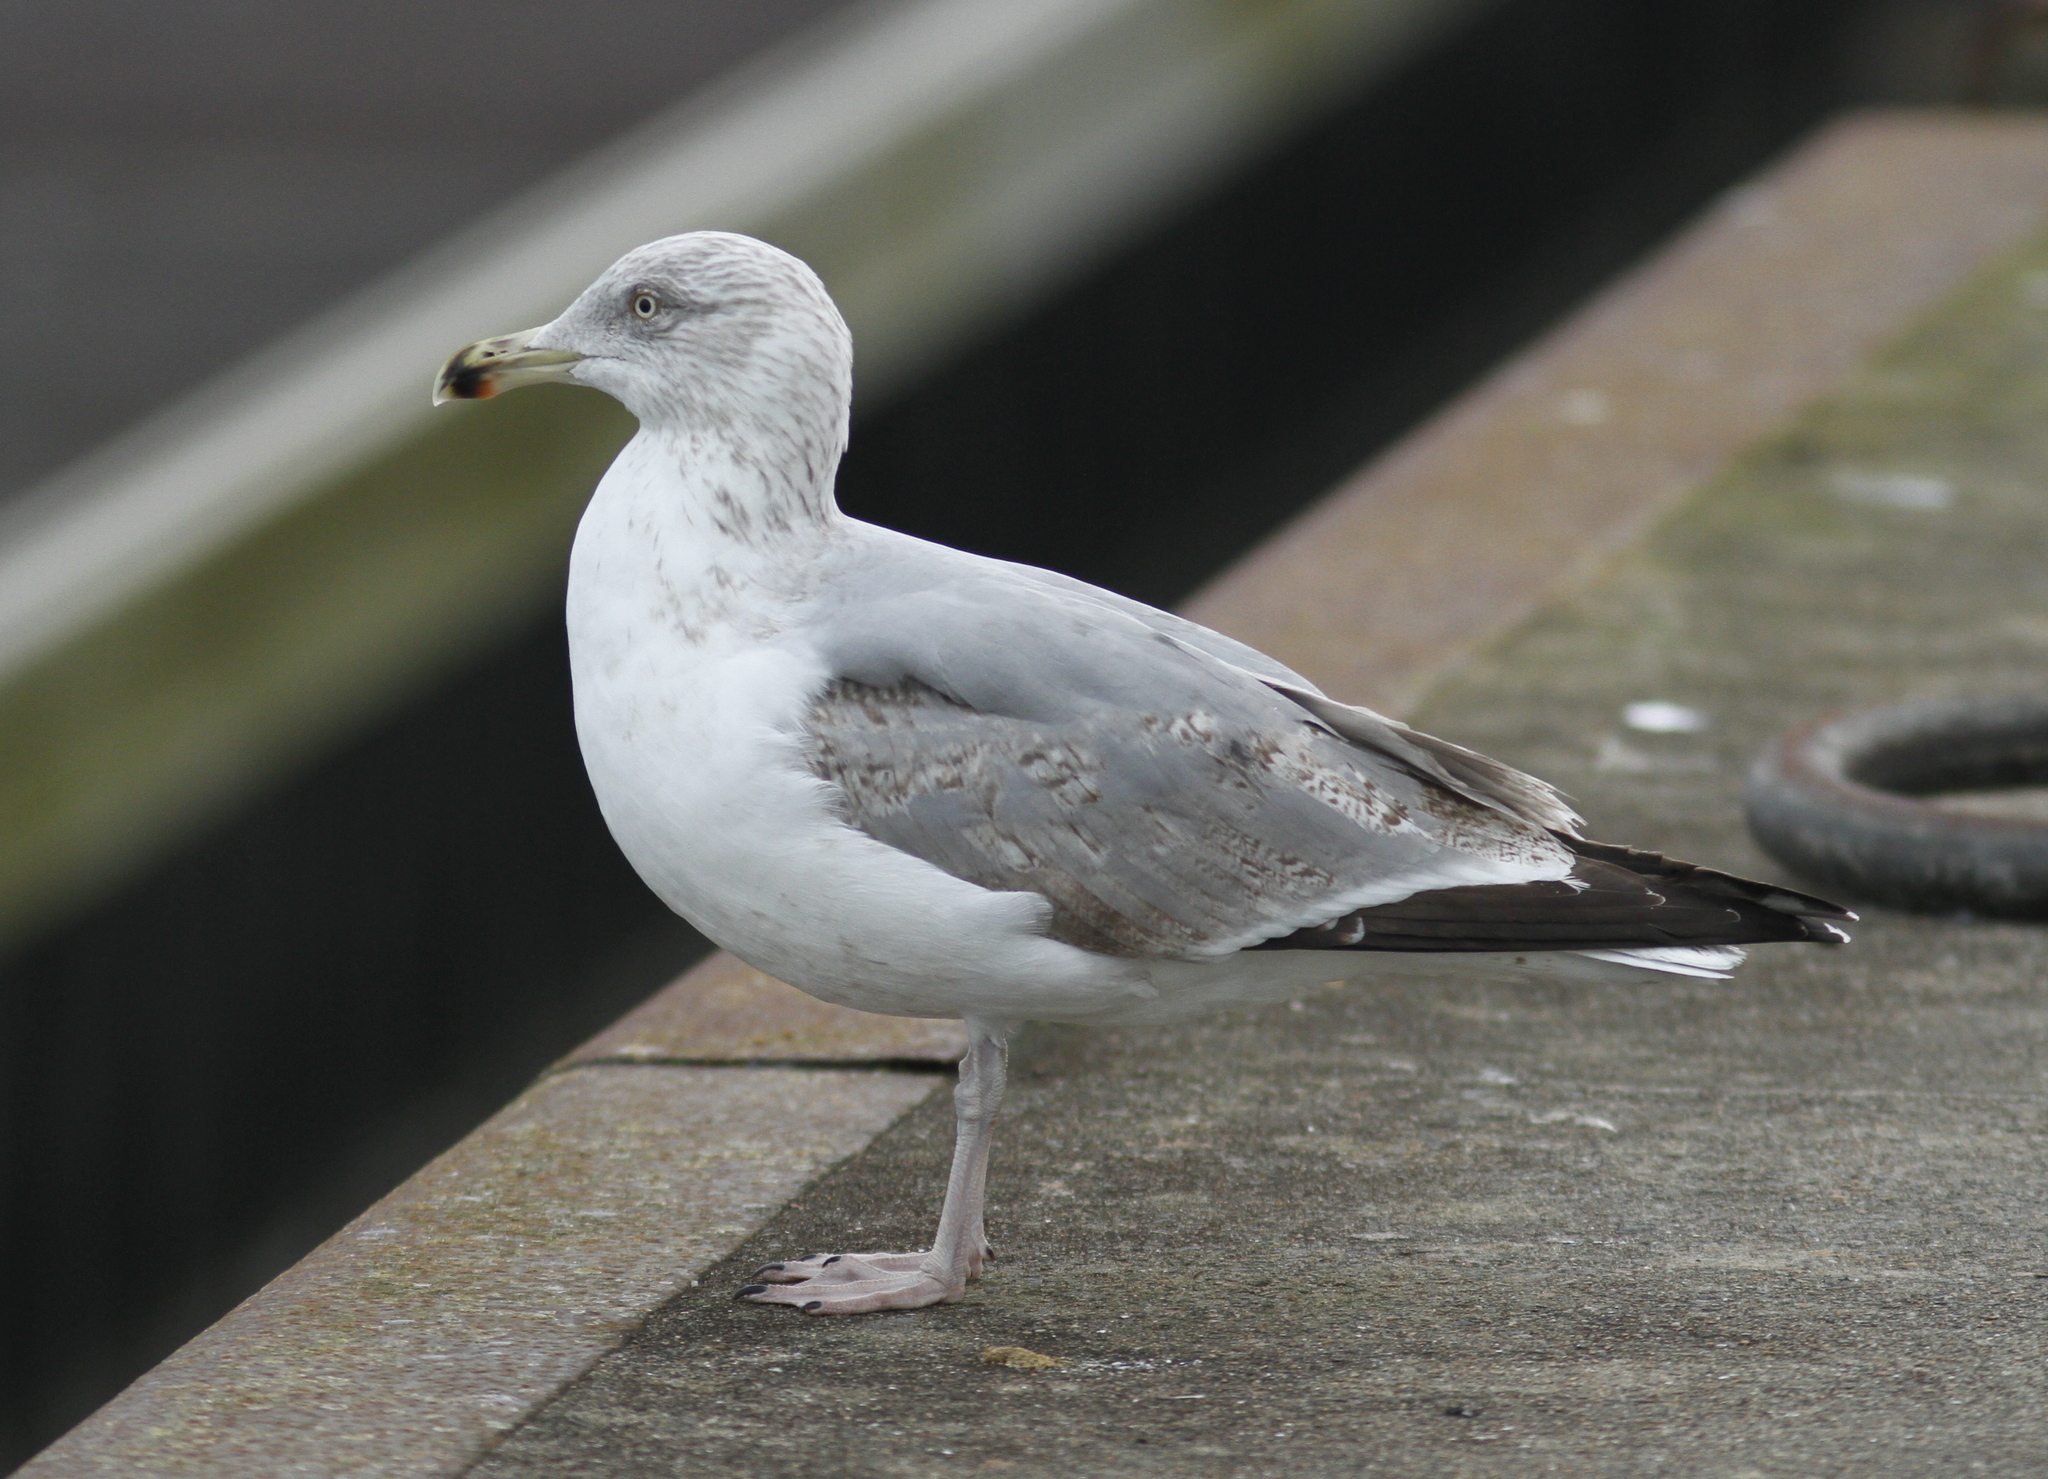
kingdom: Animalia
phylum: Chordata
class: Aves
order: Charadriiformes
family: Laridae
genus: Larus
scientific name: Larus argentatus
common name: Herring gull
